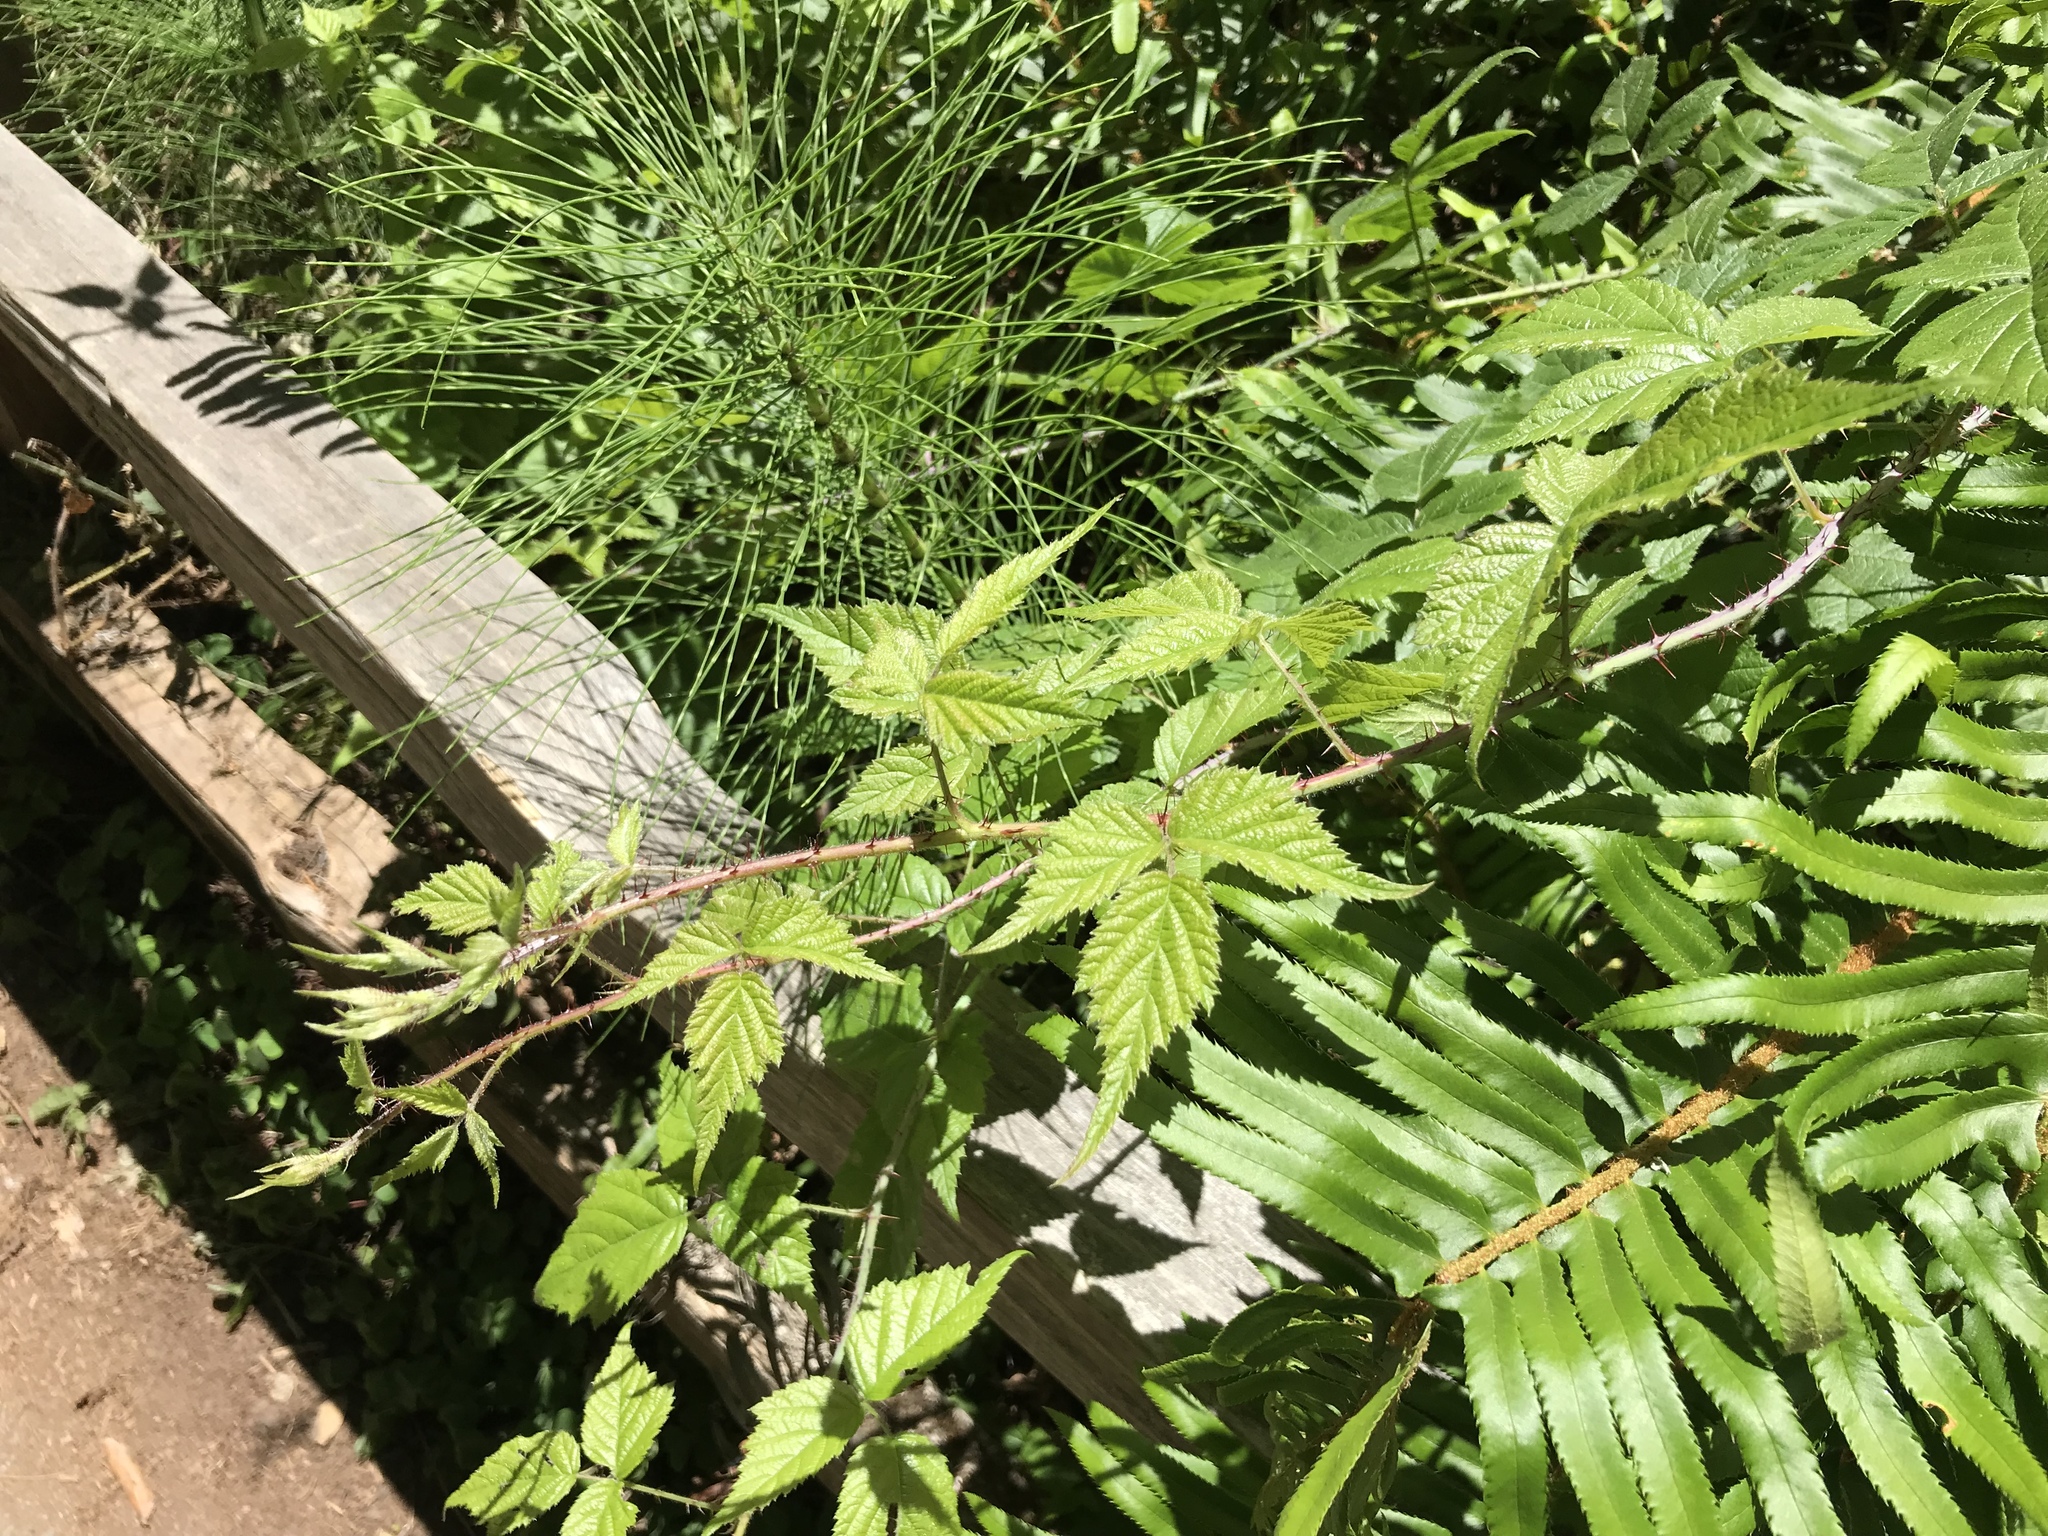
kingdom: Plantae
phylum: Tracheophyta
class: Magnoliopsida
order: Rosales
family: Rosaceae
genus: Rubus
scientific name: Rubus ursinus
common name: Pacific blackberry
